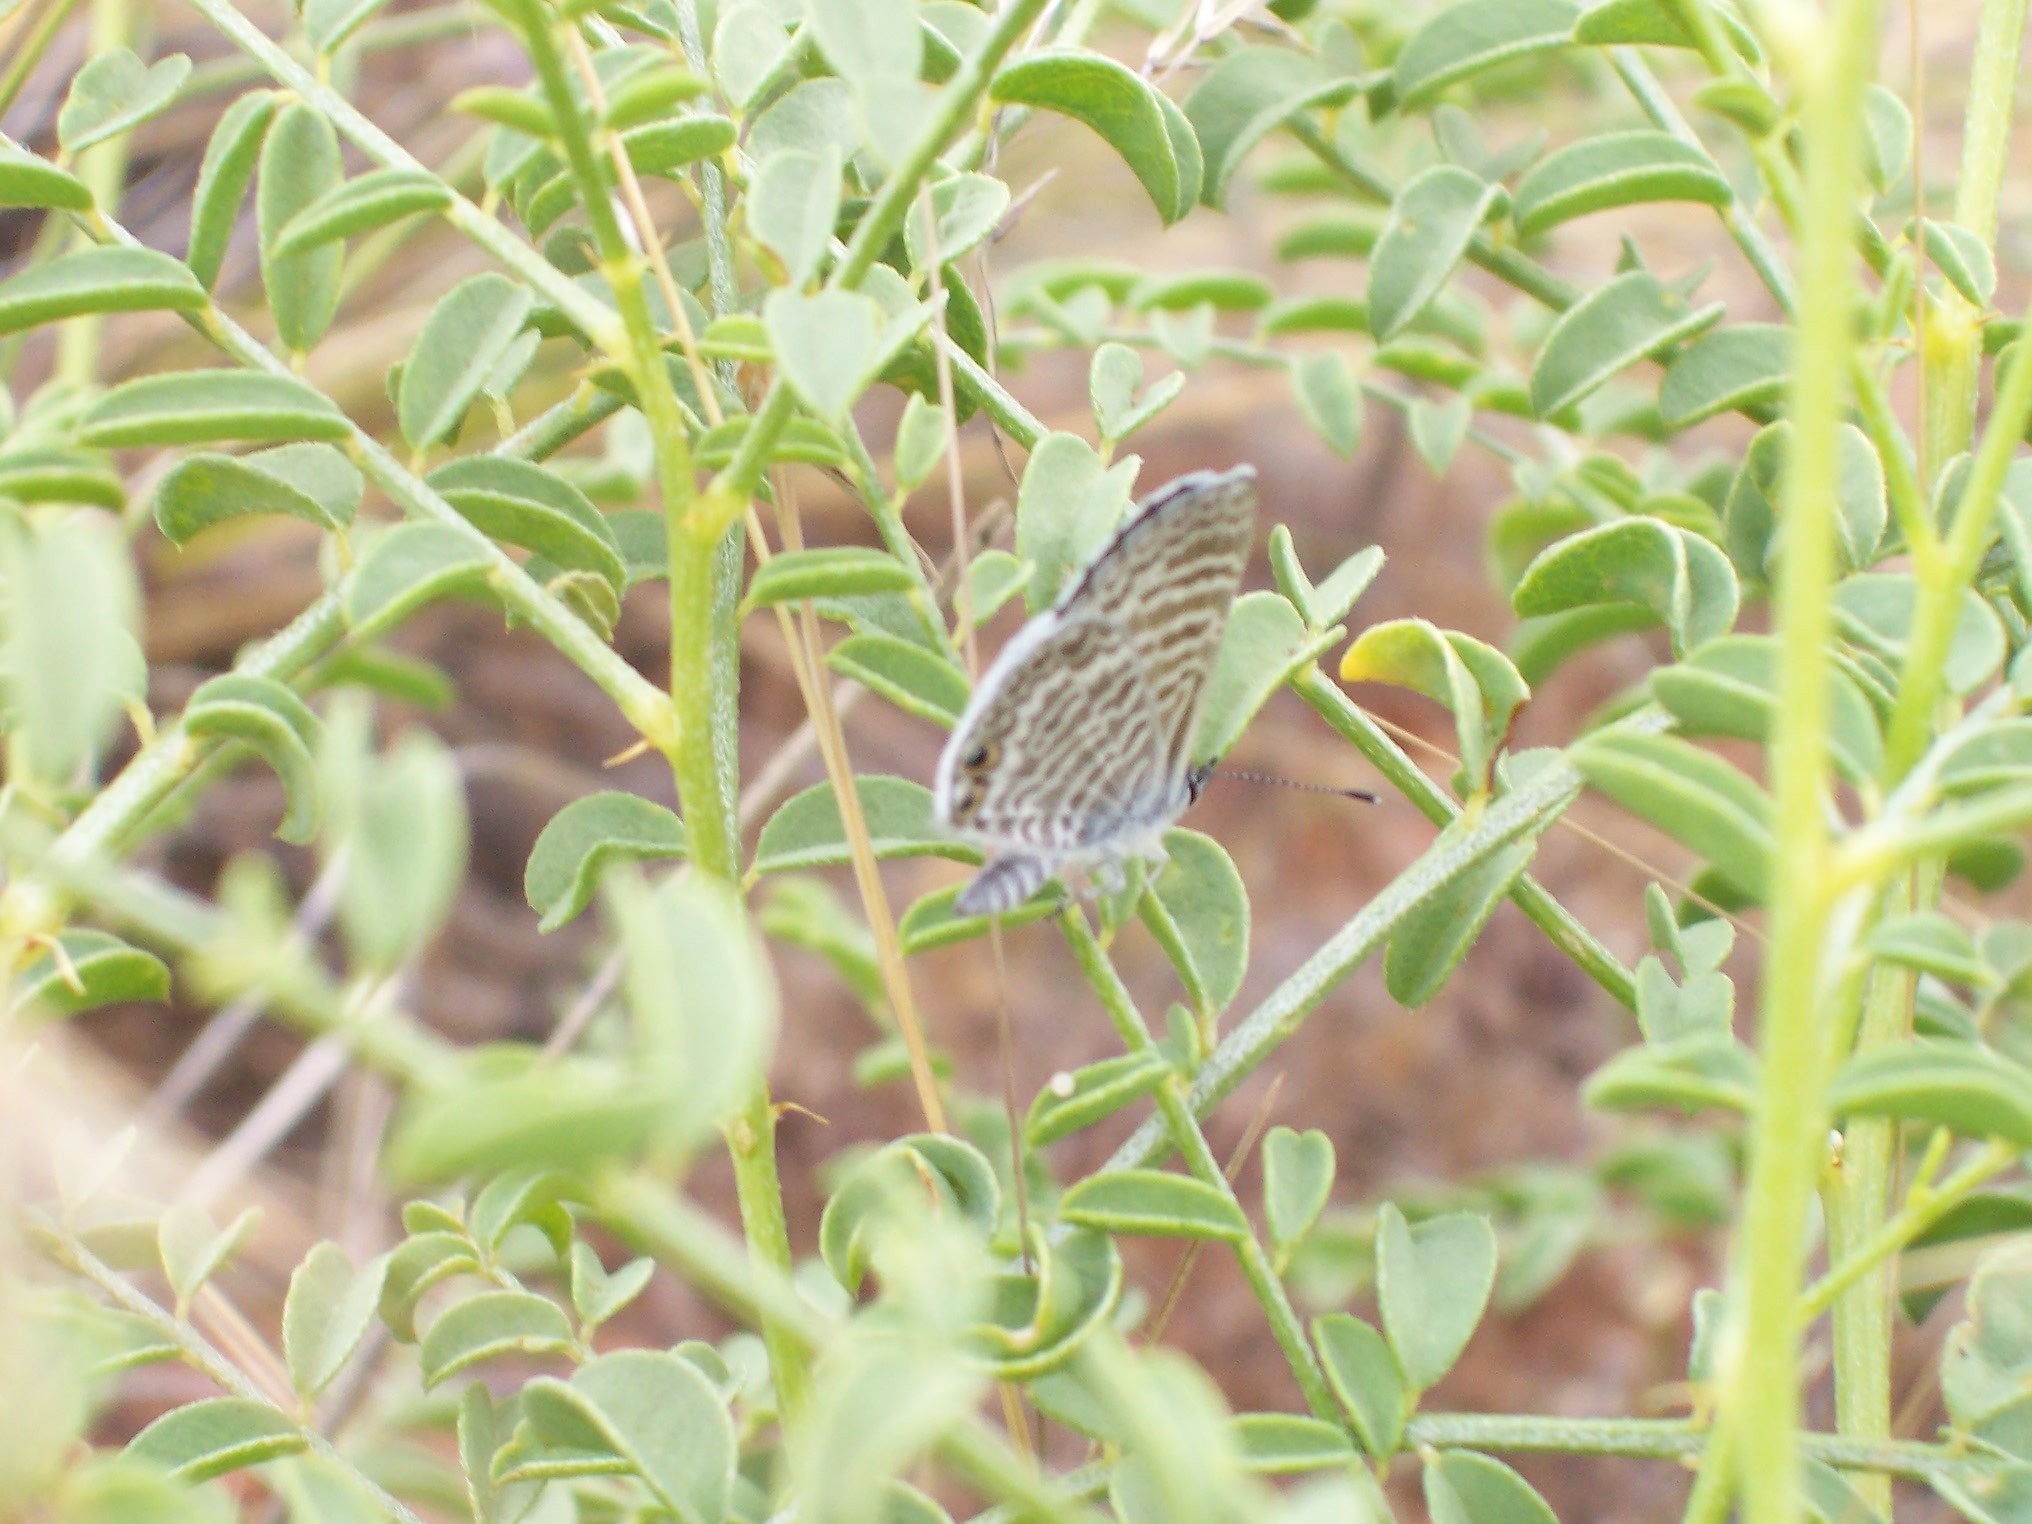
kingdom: Animalia
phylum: Arthropoda
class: Insecta
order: Lepidoptera
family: Lycaenidae
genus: Leptotes
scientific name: Leptotes marina
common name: Marine blue
